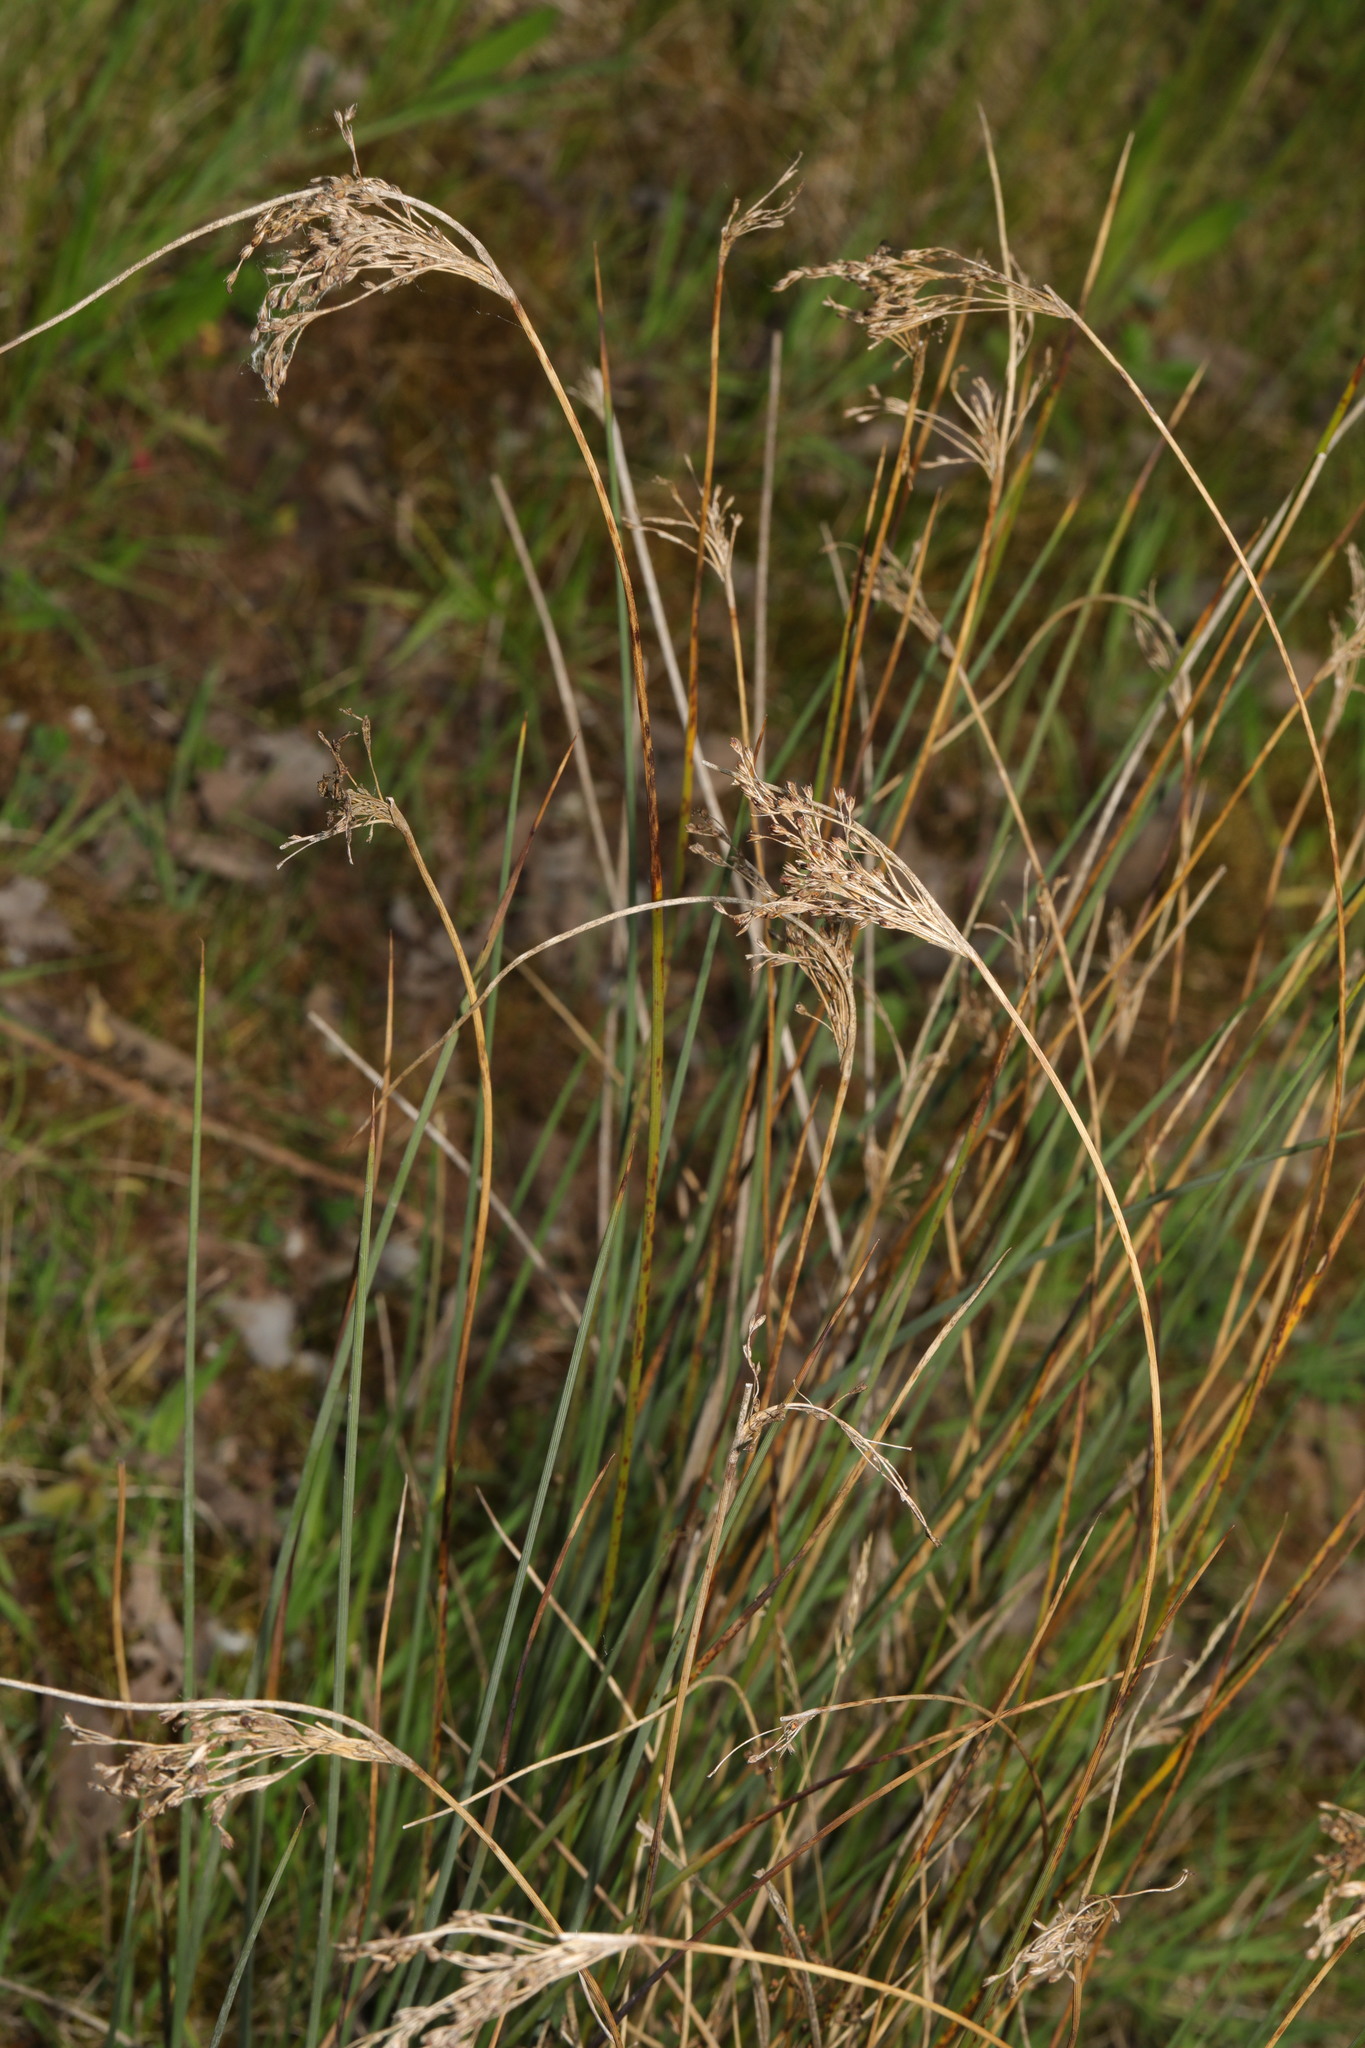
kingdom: Plantae
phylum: Tracheophyta
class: Liliopsida
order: Poales
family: Juncaceae
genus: Juncus
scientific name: Juncus inflexus
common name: Hard rush
